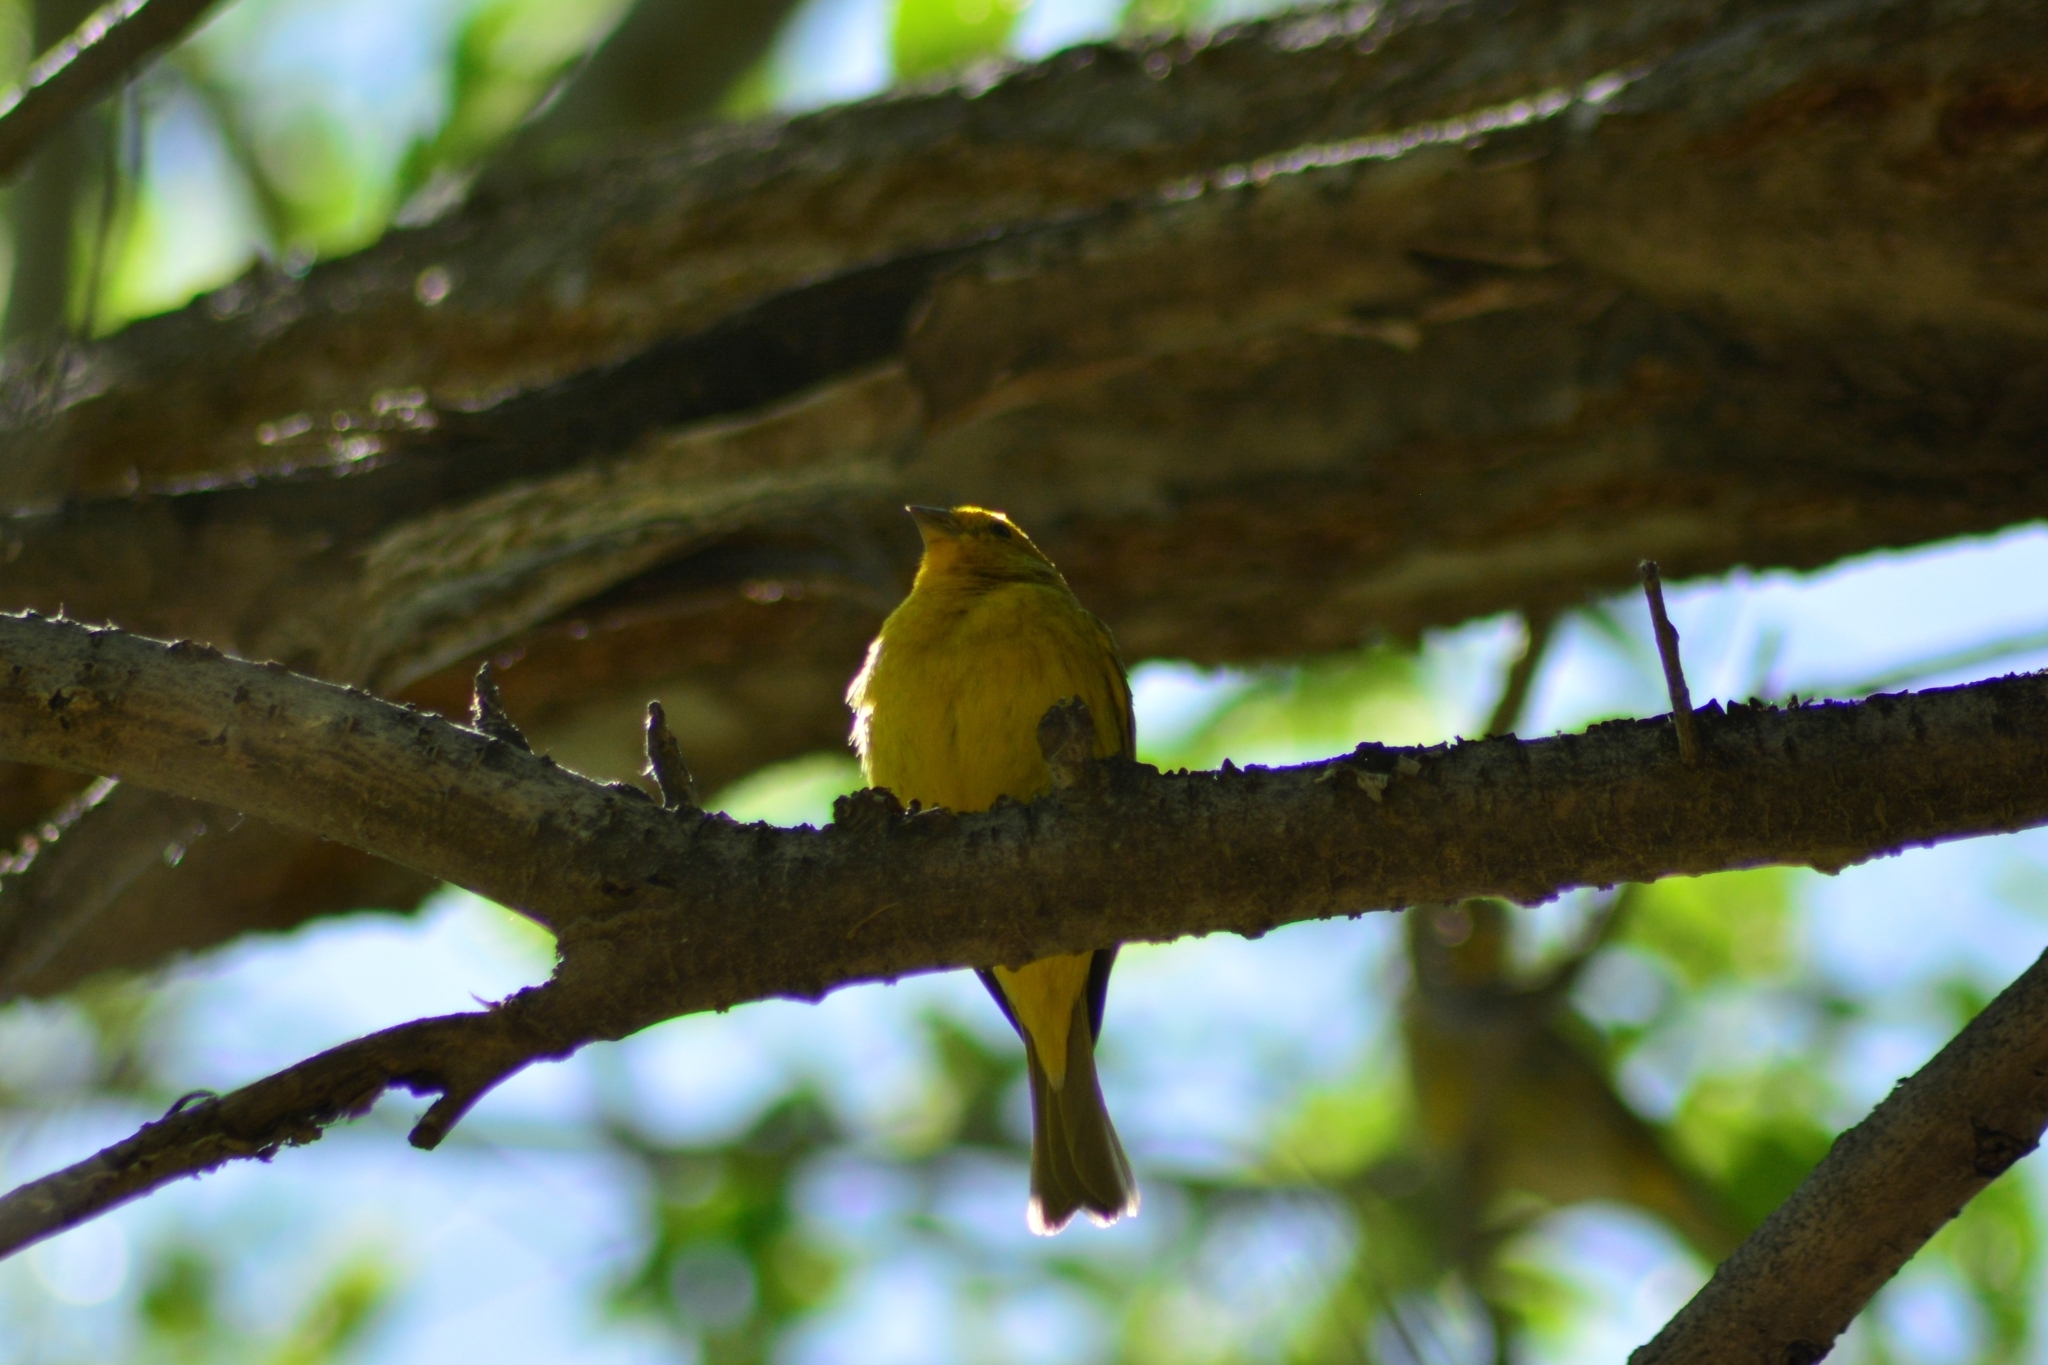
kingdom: Animalia
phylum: Chordata
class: Aves
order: Passeriformes
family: Thraupidae
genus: Sicalis
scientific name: Sicalis flaveola
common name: Saffron finch
